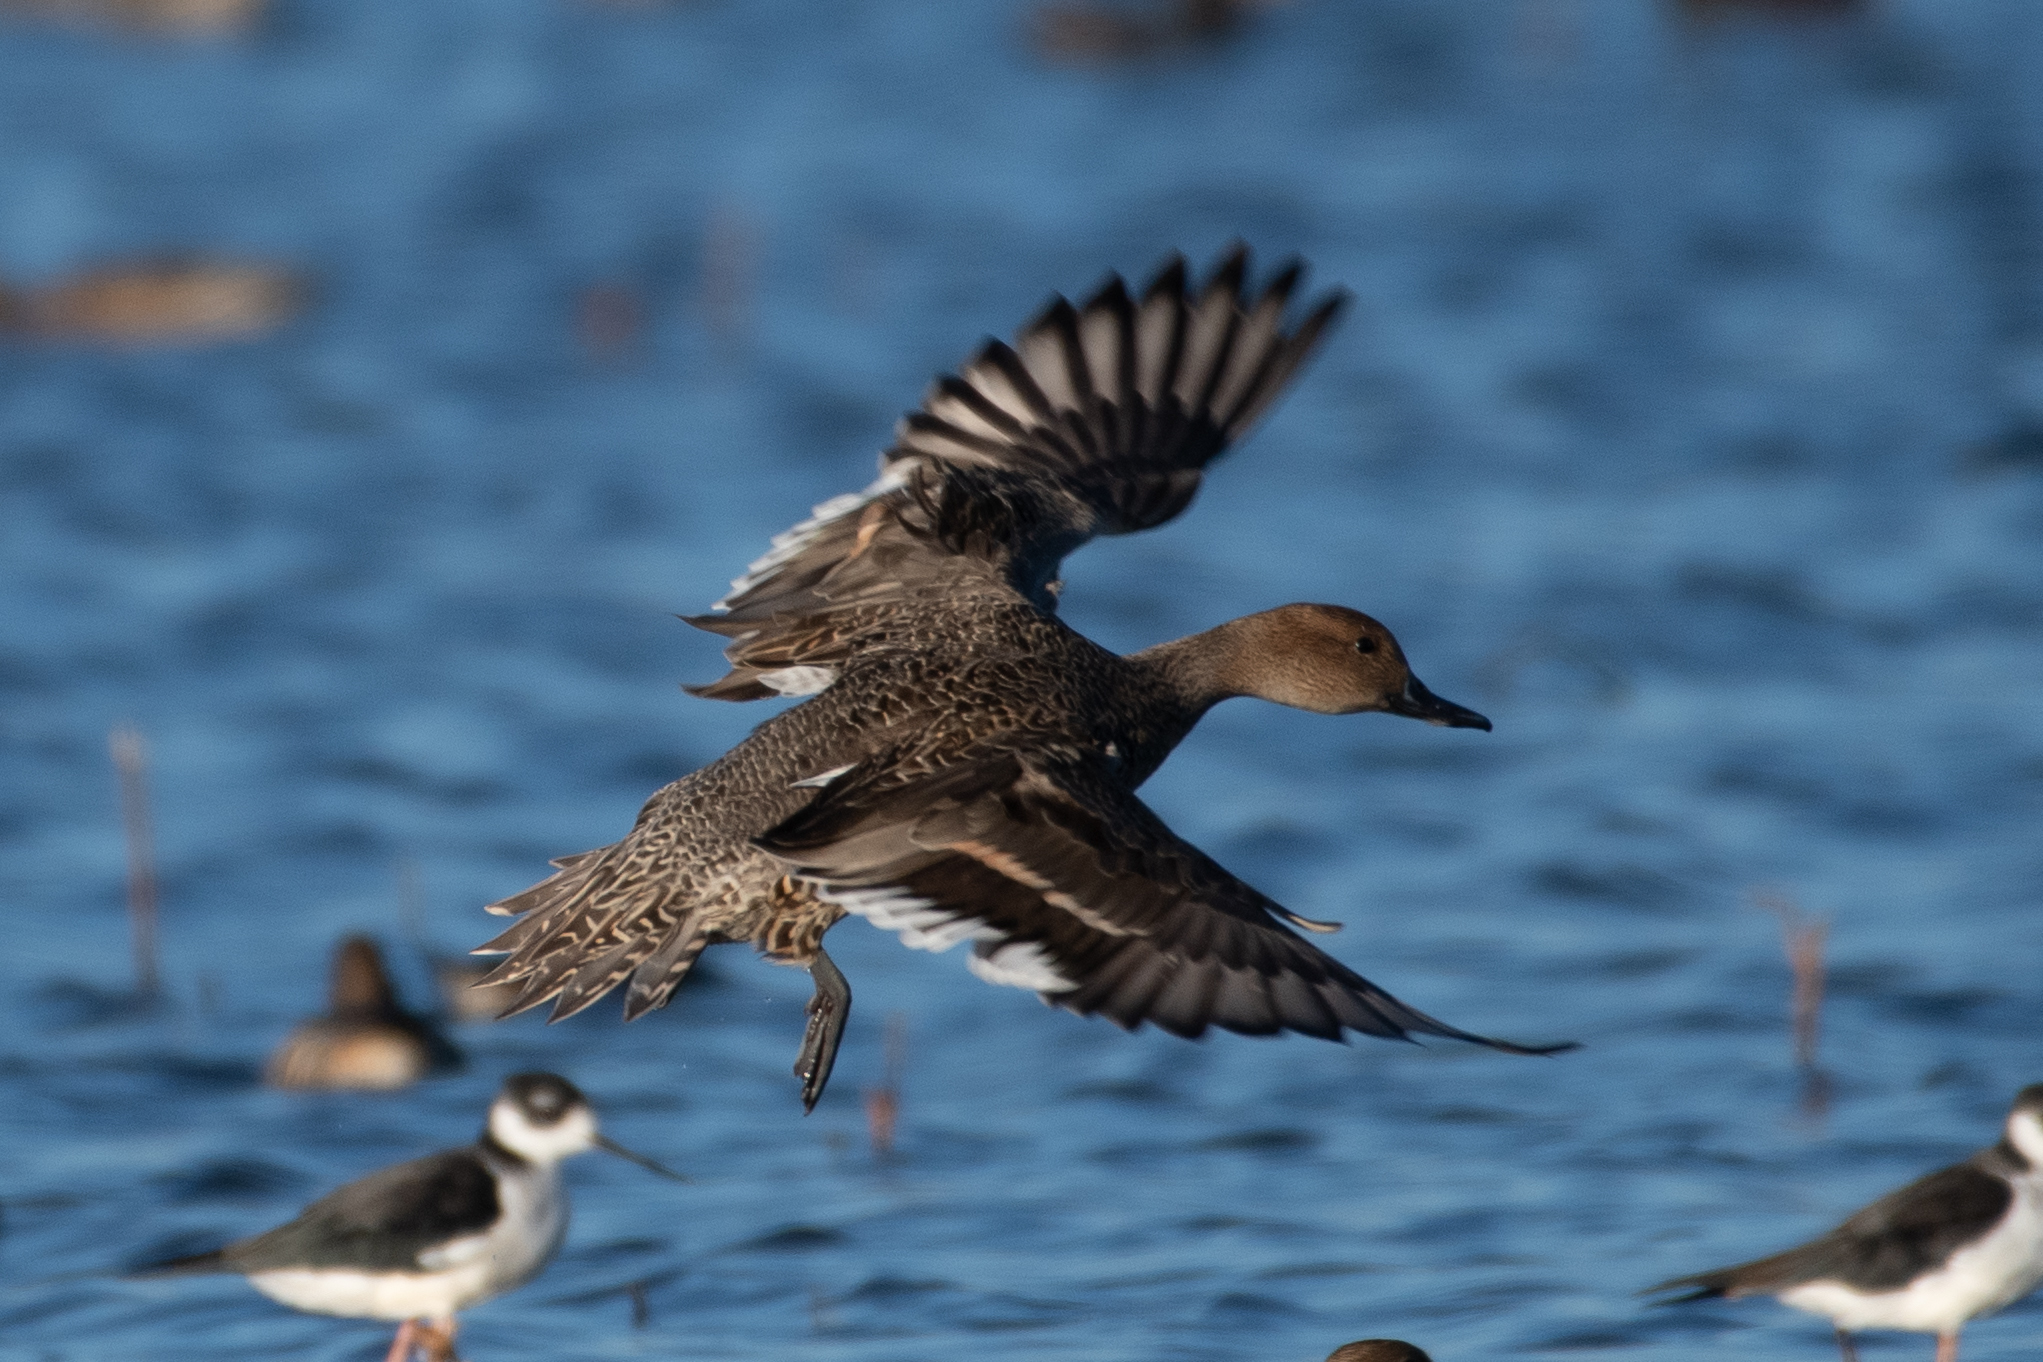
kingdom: Animalia
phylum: Chordata
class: Aves
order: Anseriformes
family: Anatidae
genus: Anas
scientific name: Anas acuta
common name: Northern pintail
